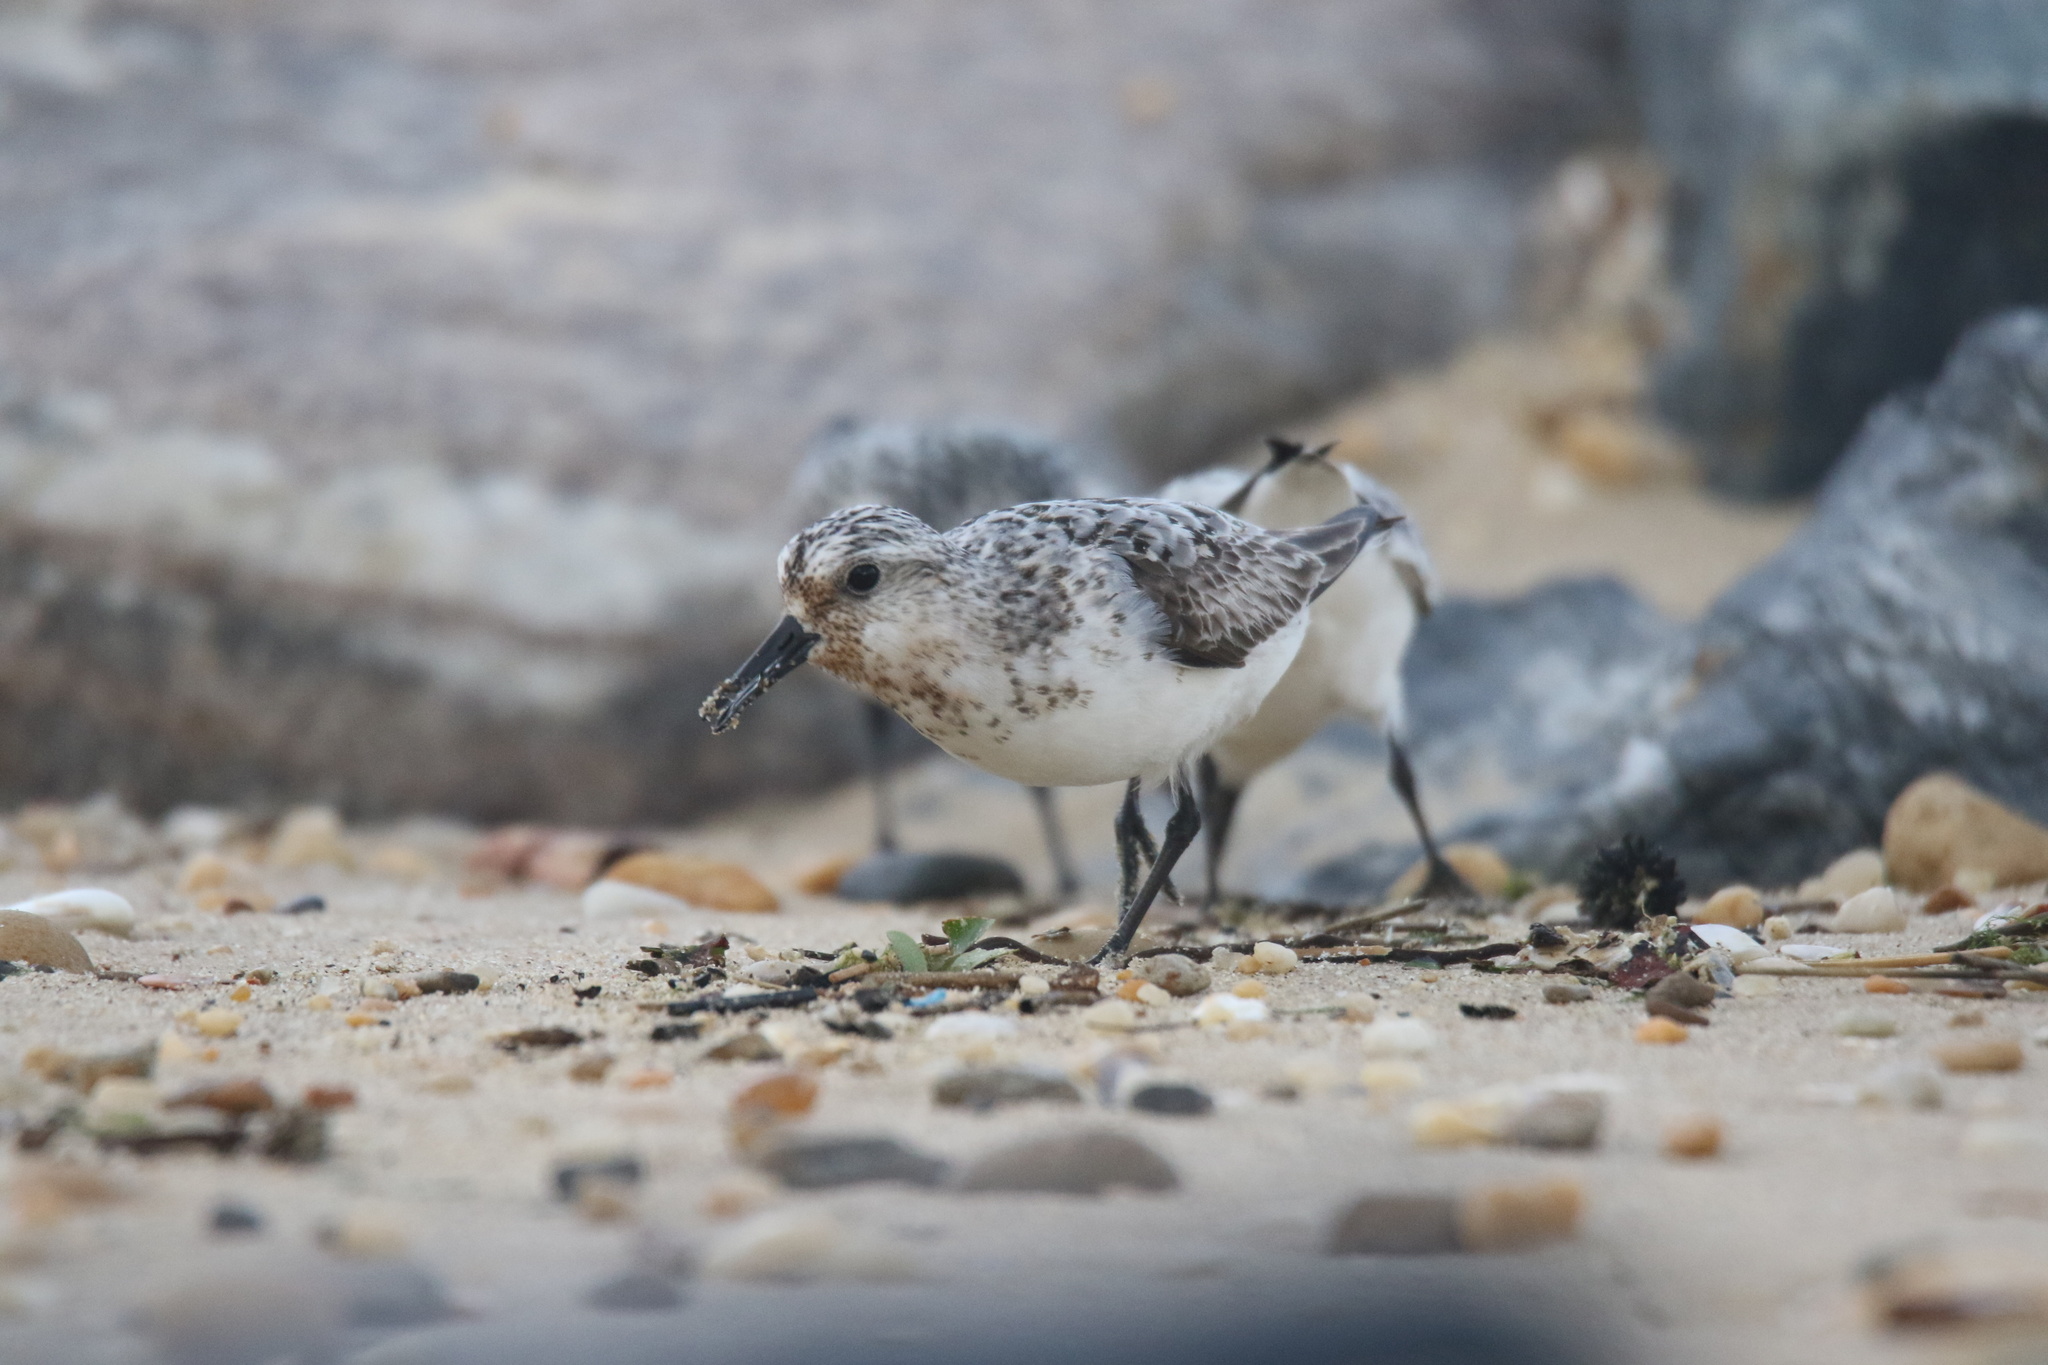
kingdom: Animalia
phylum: Chordata
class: Aves
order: Charadriiformes
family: Scolopacidae
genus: Calidris
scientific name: Calidris alba
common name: Sanderling
